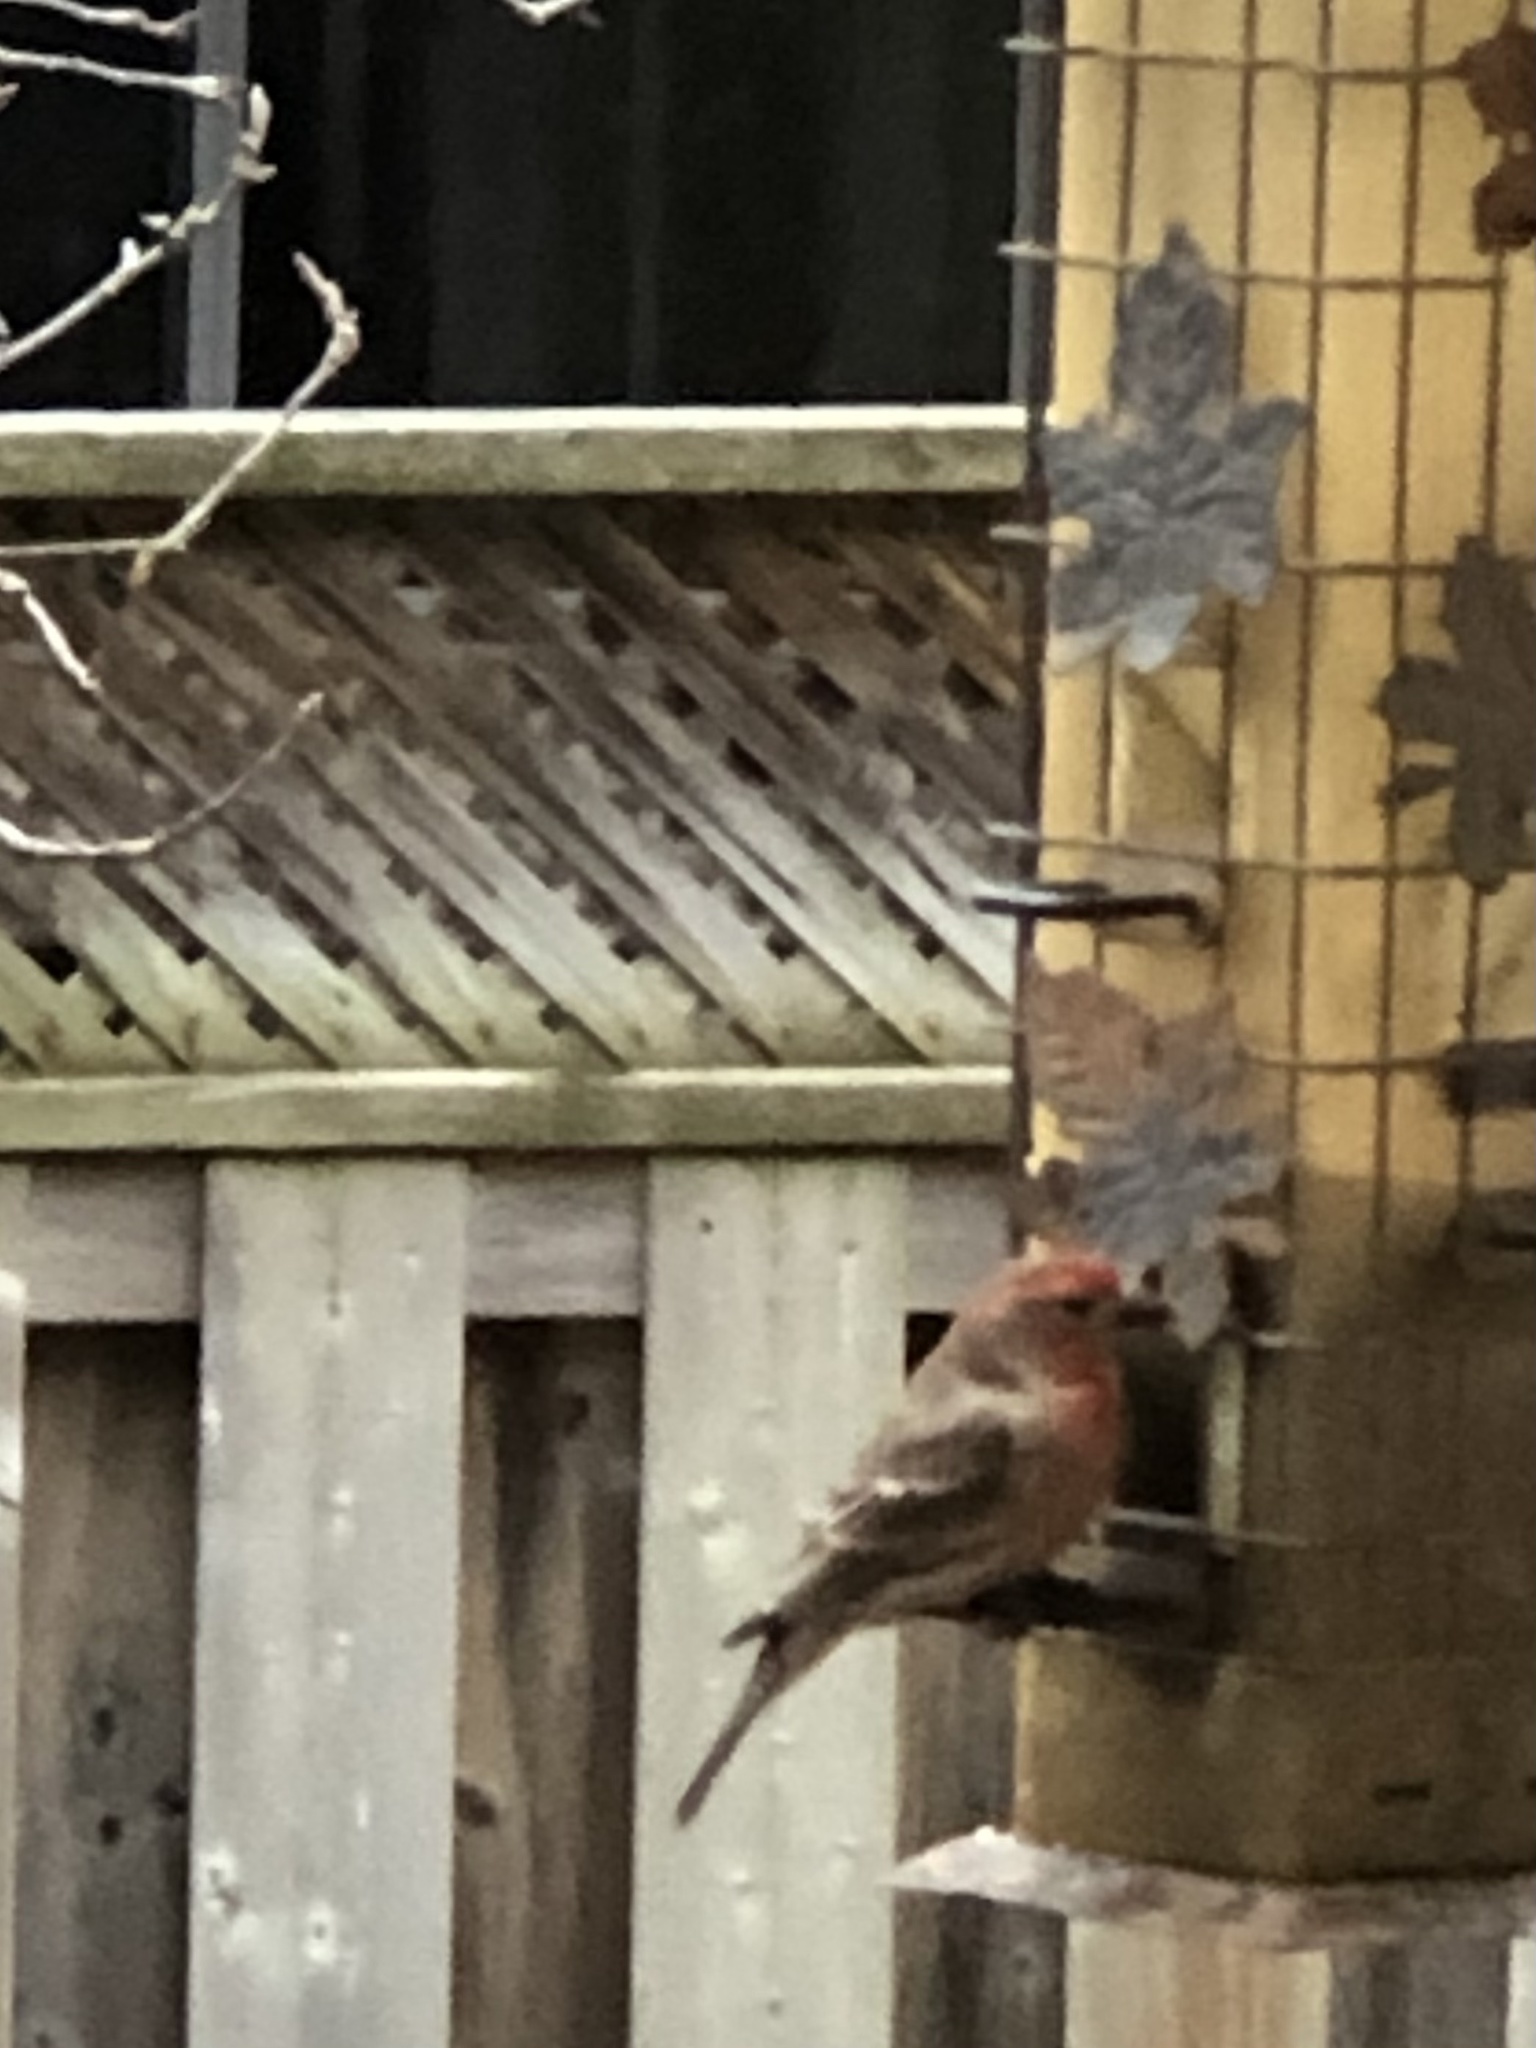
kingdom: Animalia
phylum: Chordata
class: Aves
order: Passeriformes
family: Fringillidae
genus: Haemorhous
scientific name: Haemorhous mexicanus
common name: House finch
